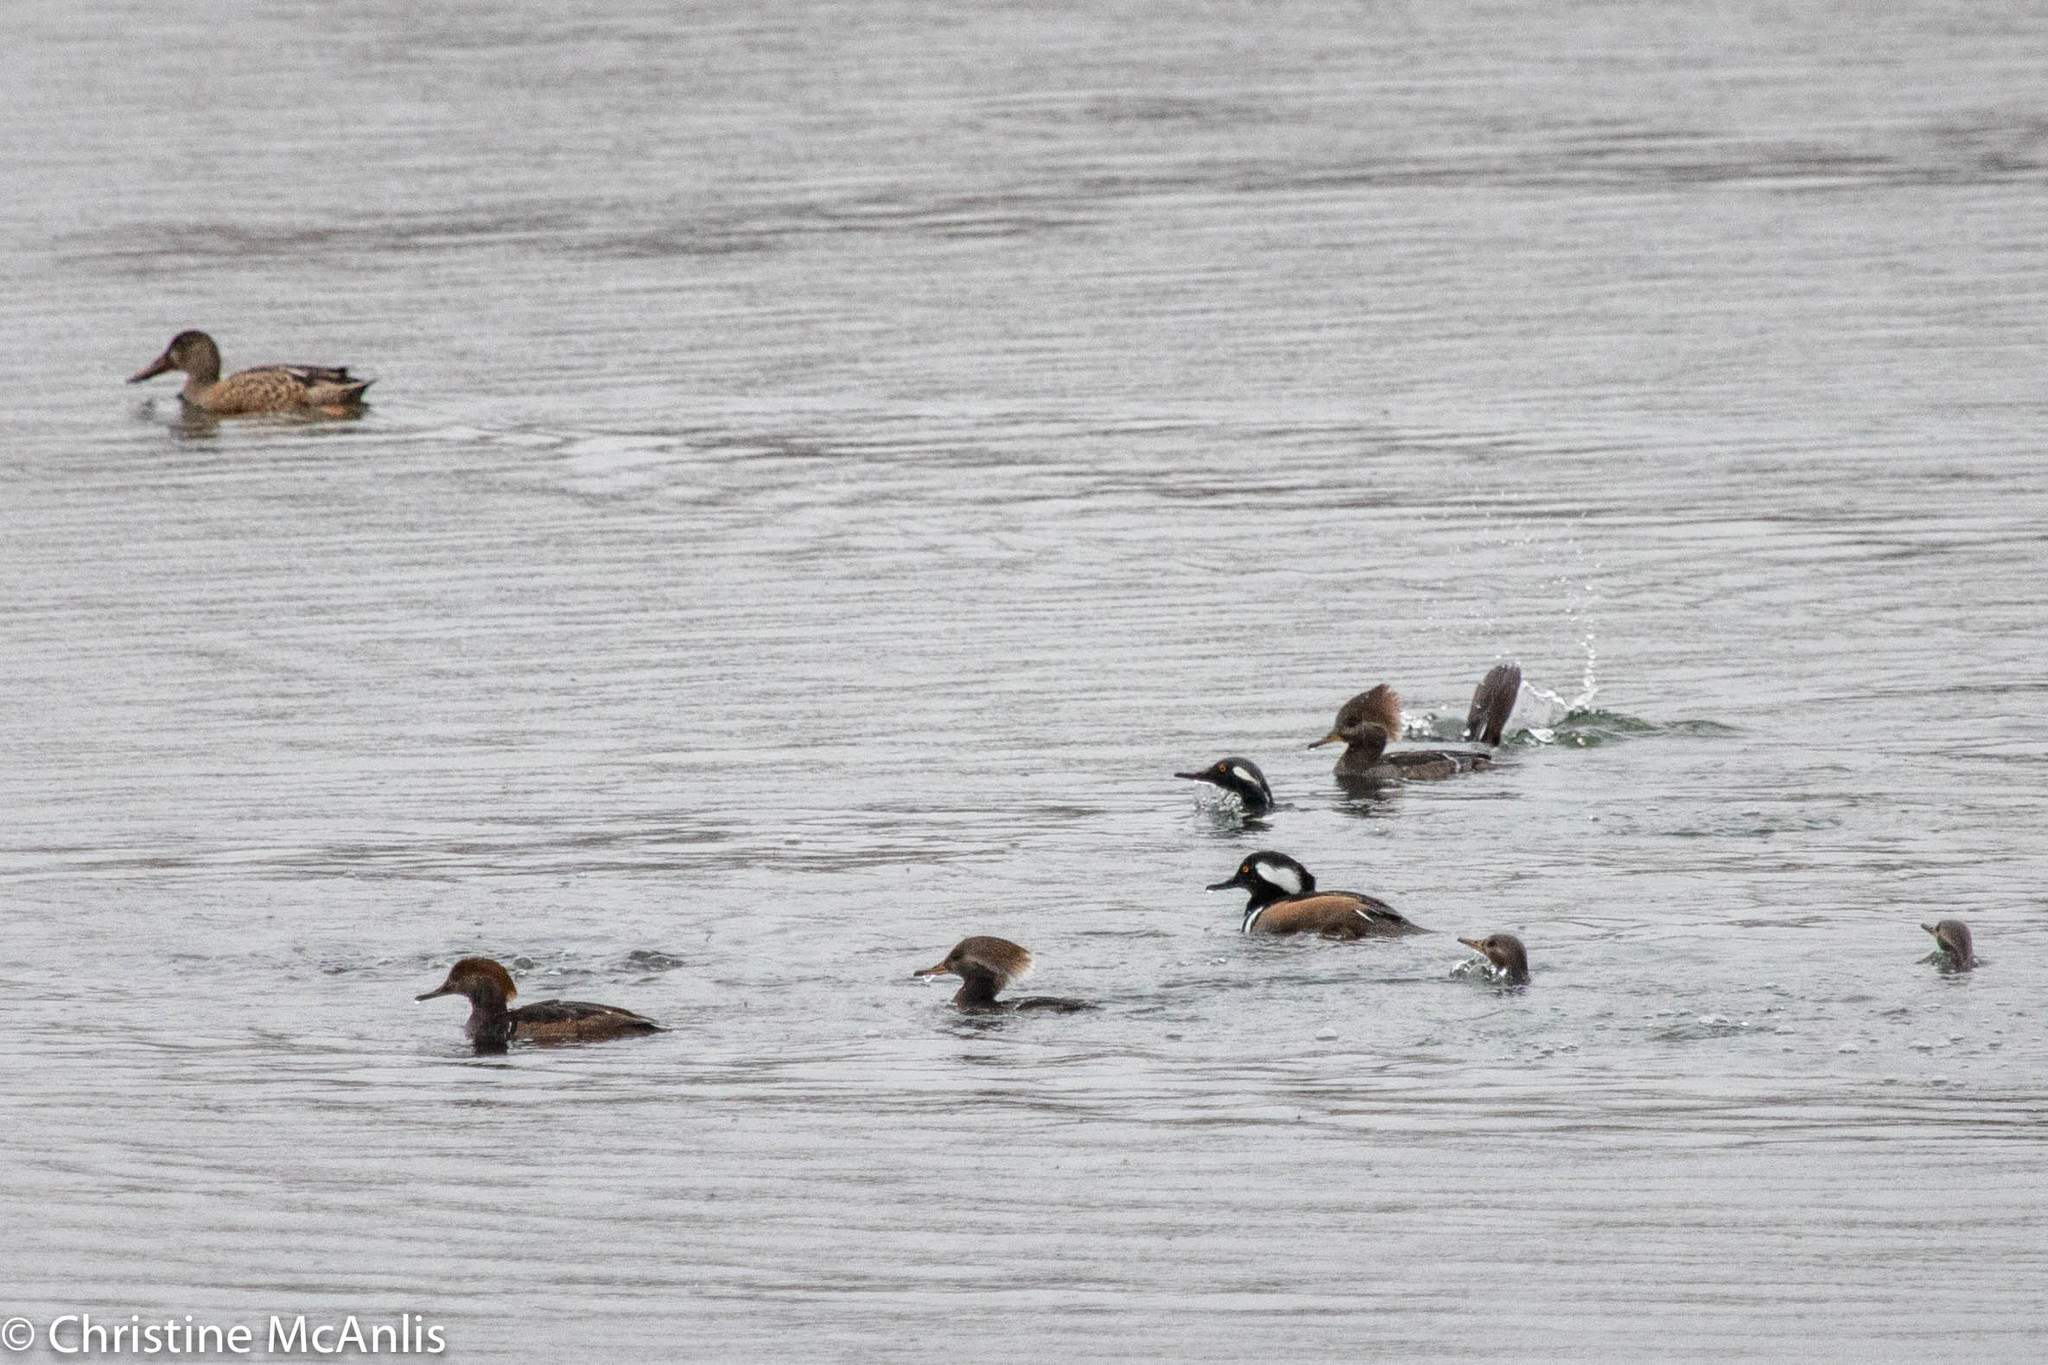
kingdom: Animalia
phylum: Chordata
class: Aves
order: Anseriformes
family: Anatidae
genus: Lophodytes
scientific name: Lophodytes cucullatus
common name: Hooded merganser
